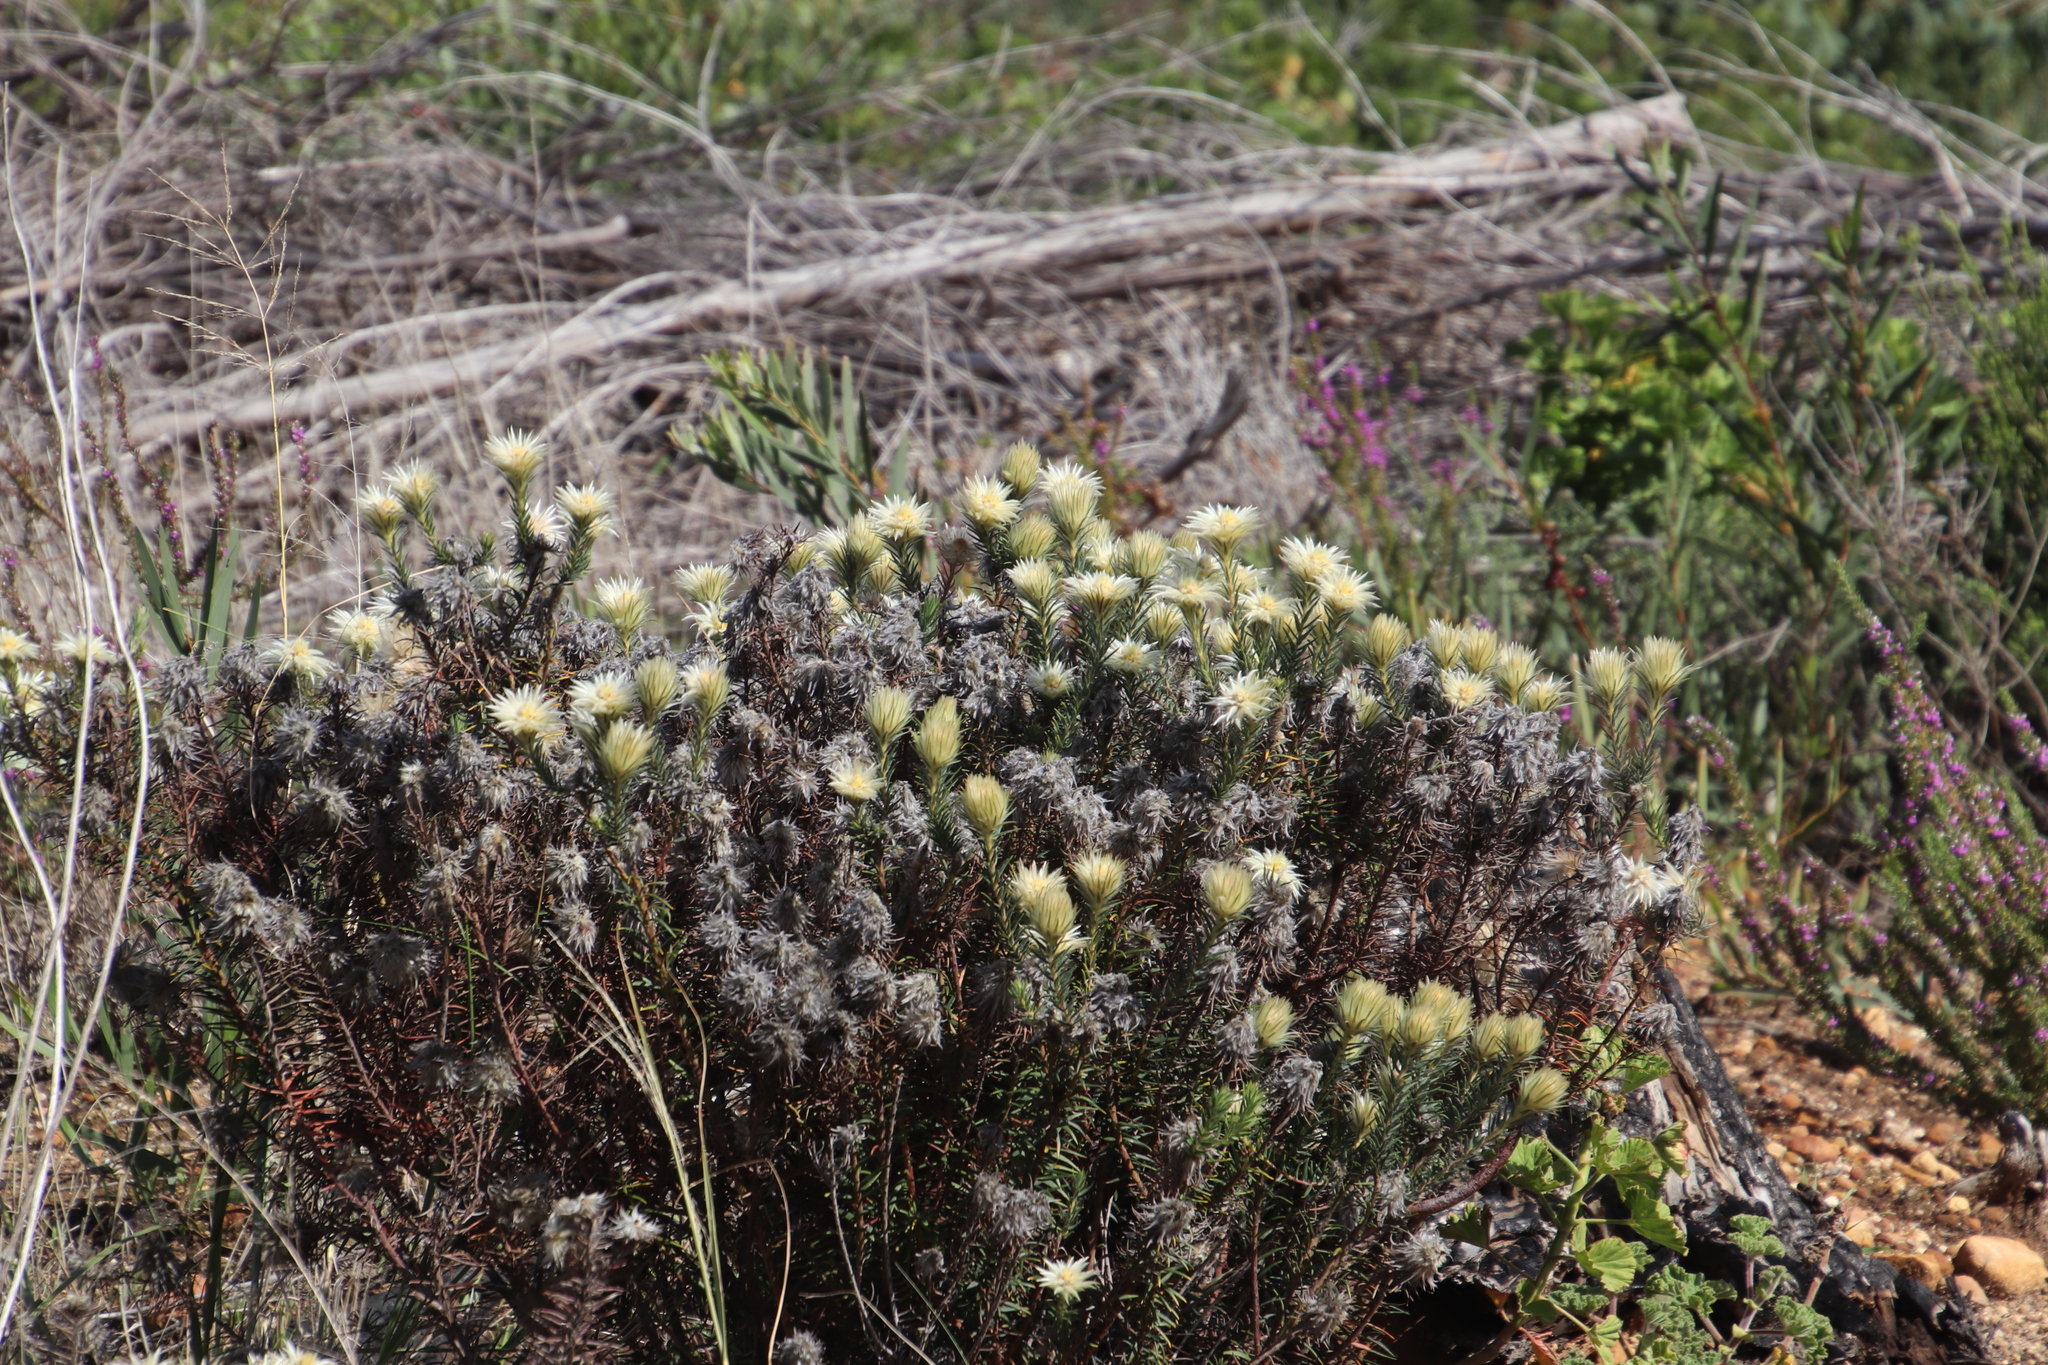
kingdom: Plantae
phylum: Tracheophyta
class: Magnoliopsida
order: Rosales
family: Rhamnaceae
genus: Phylica
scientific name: Phylica pubescens
